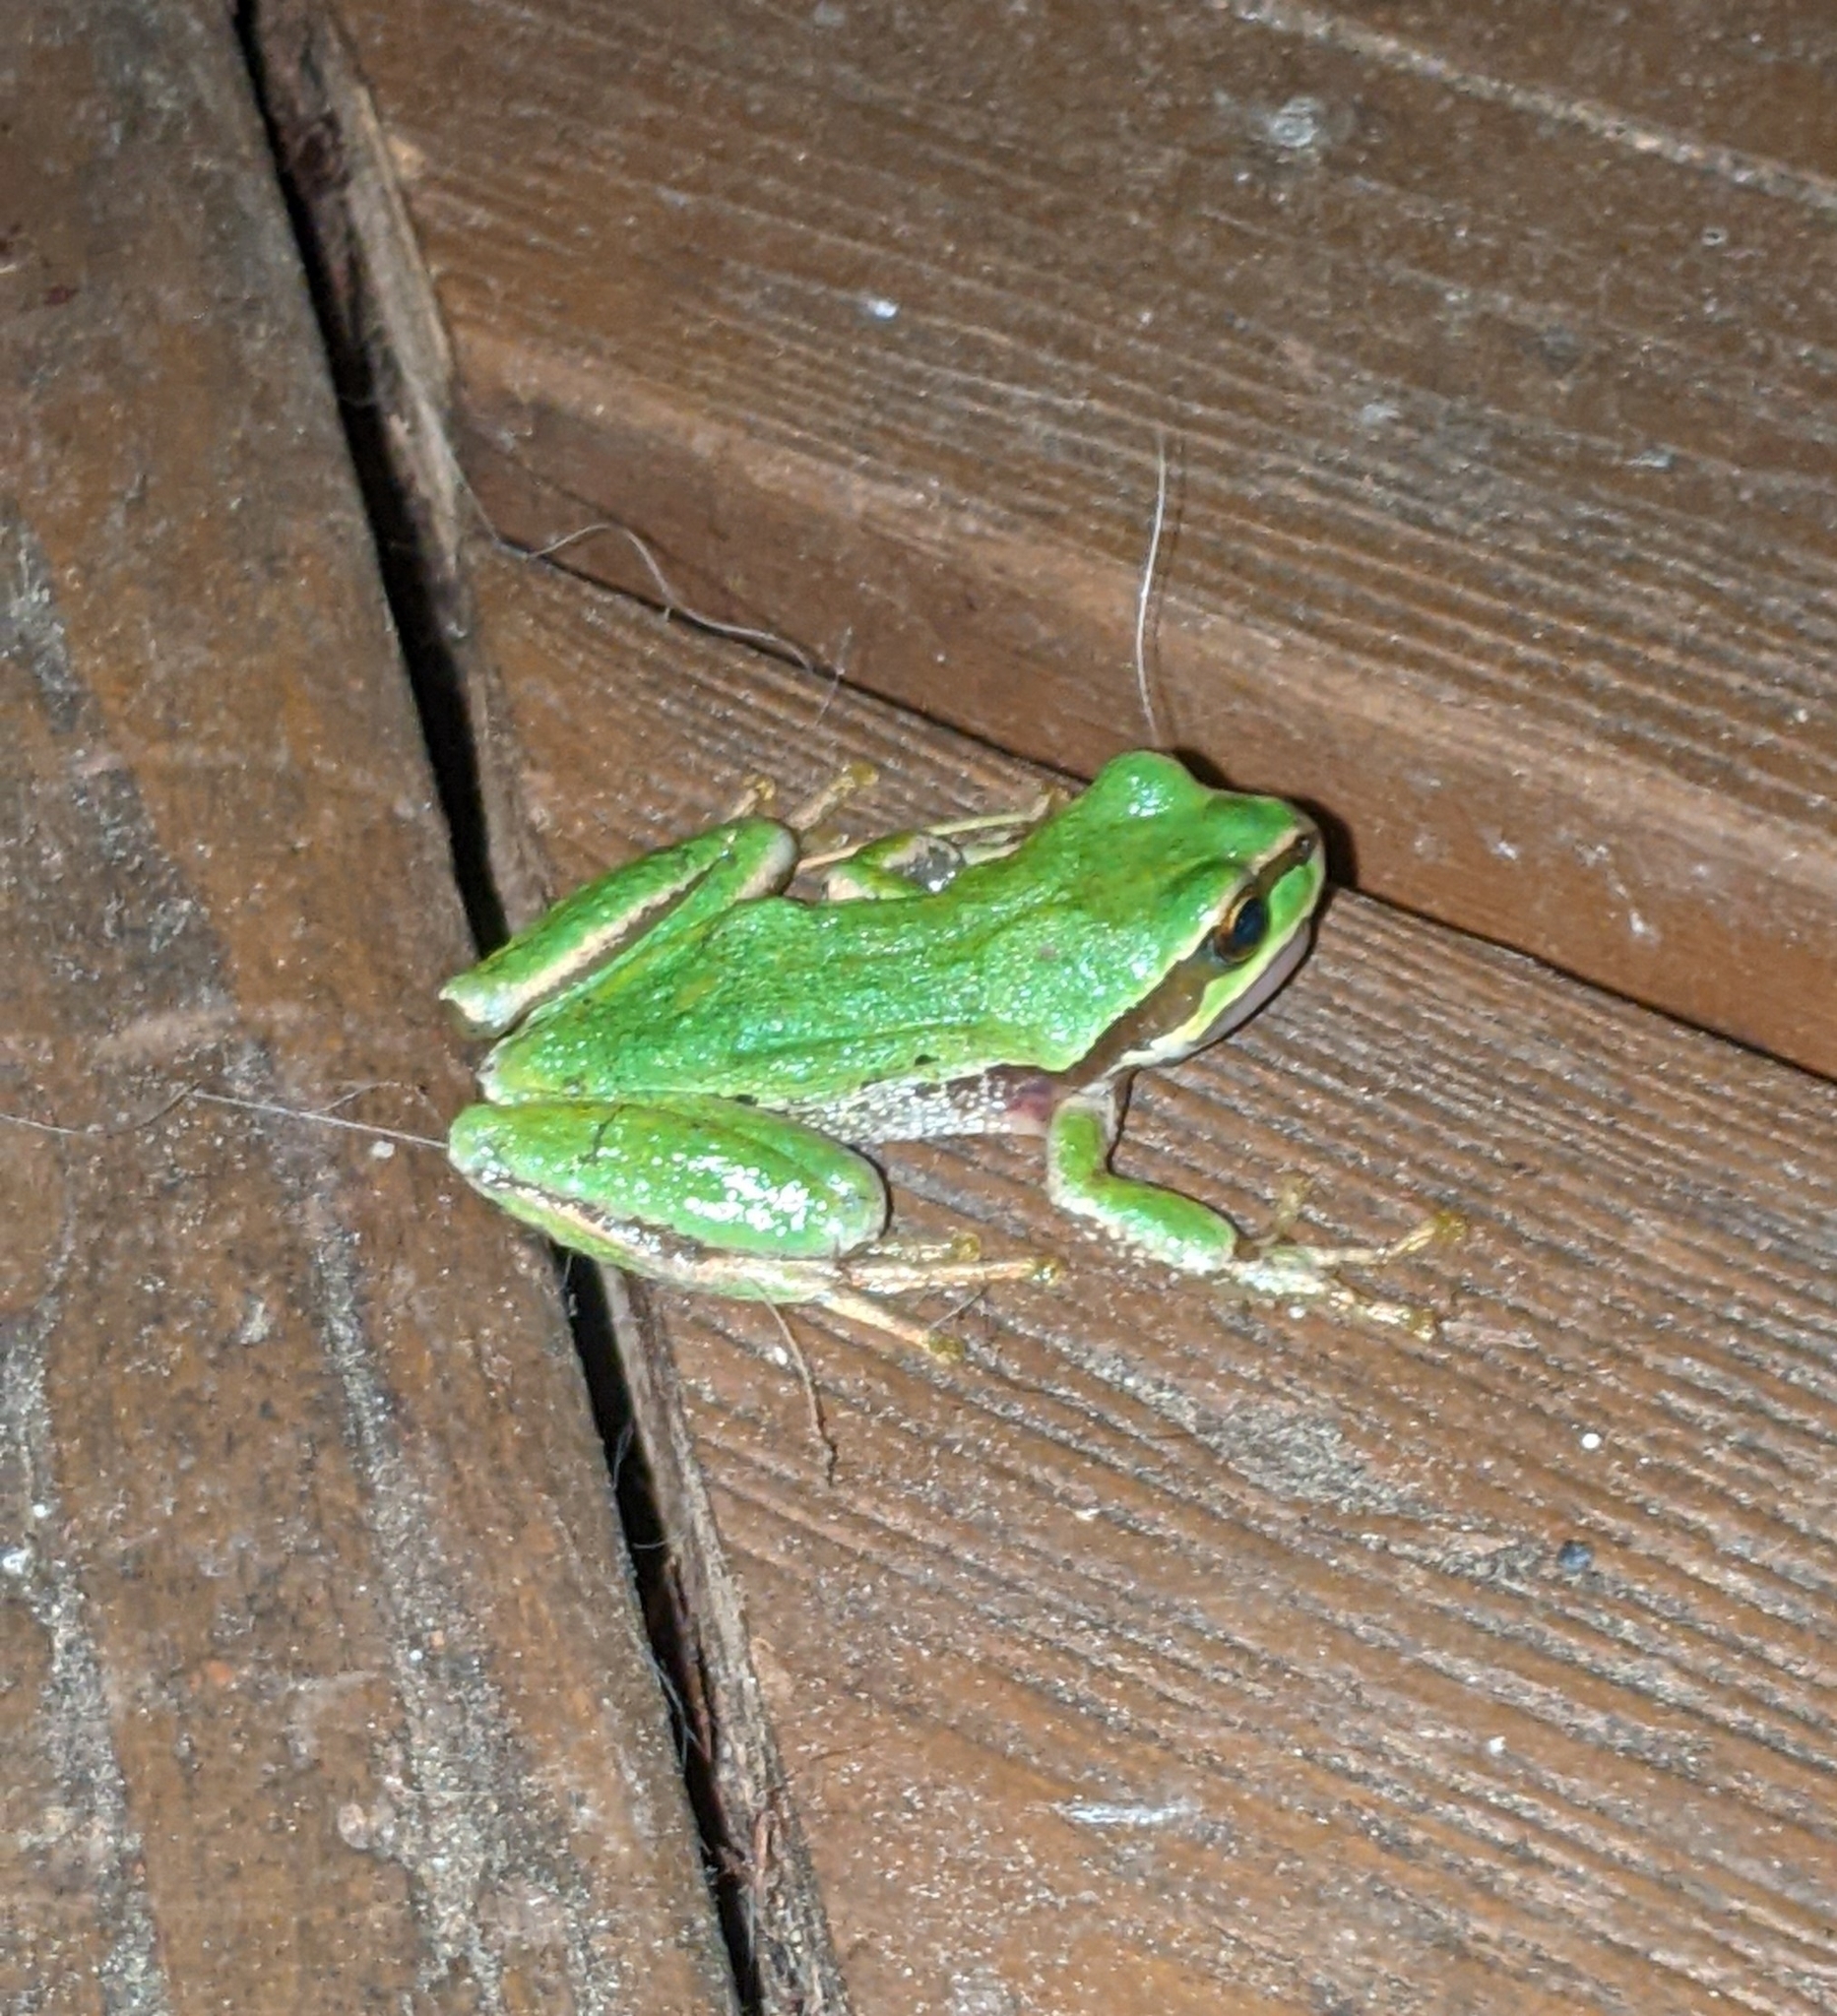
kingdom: Animalia
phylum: Chordata
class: Amphibia
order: Anura
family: Hylidae
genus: Pseudacris
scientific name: Pseudacris regilla
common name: Pacific chorus frog
